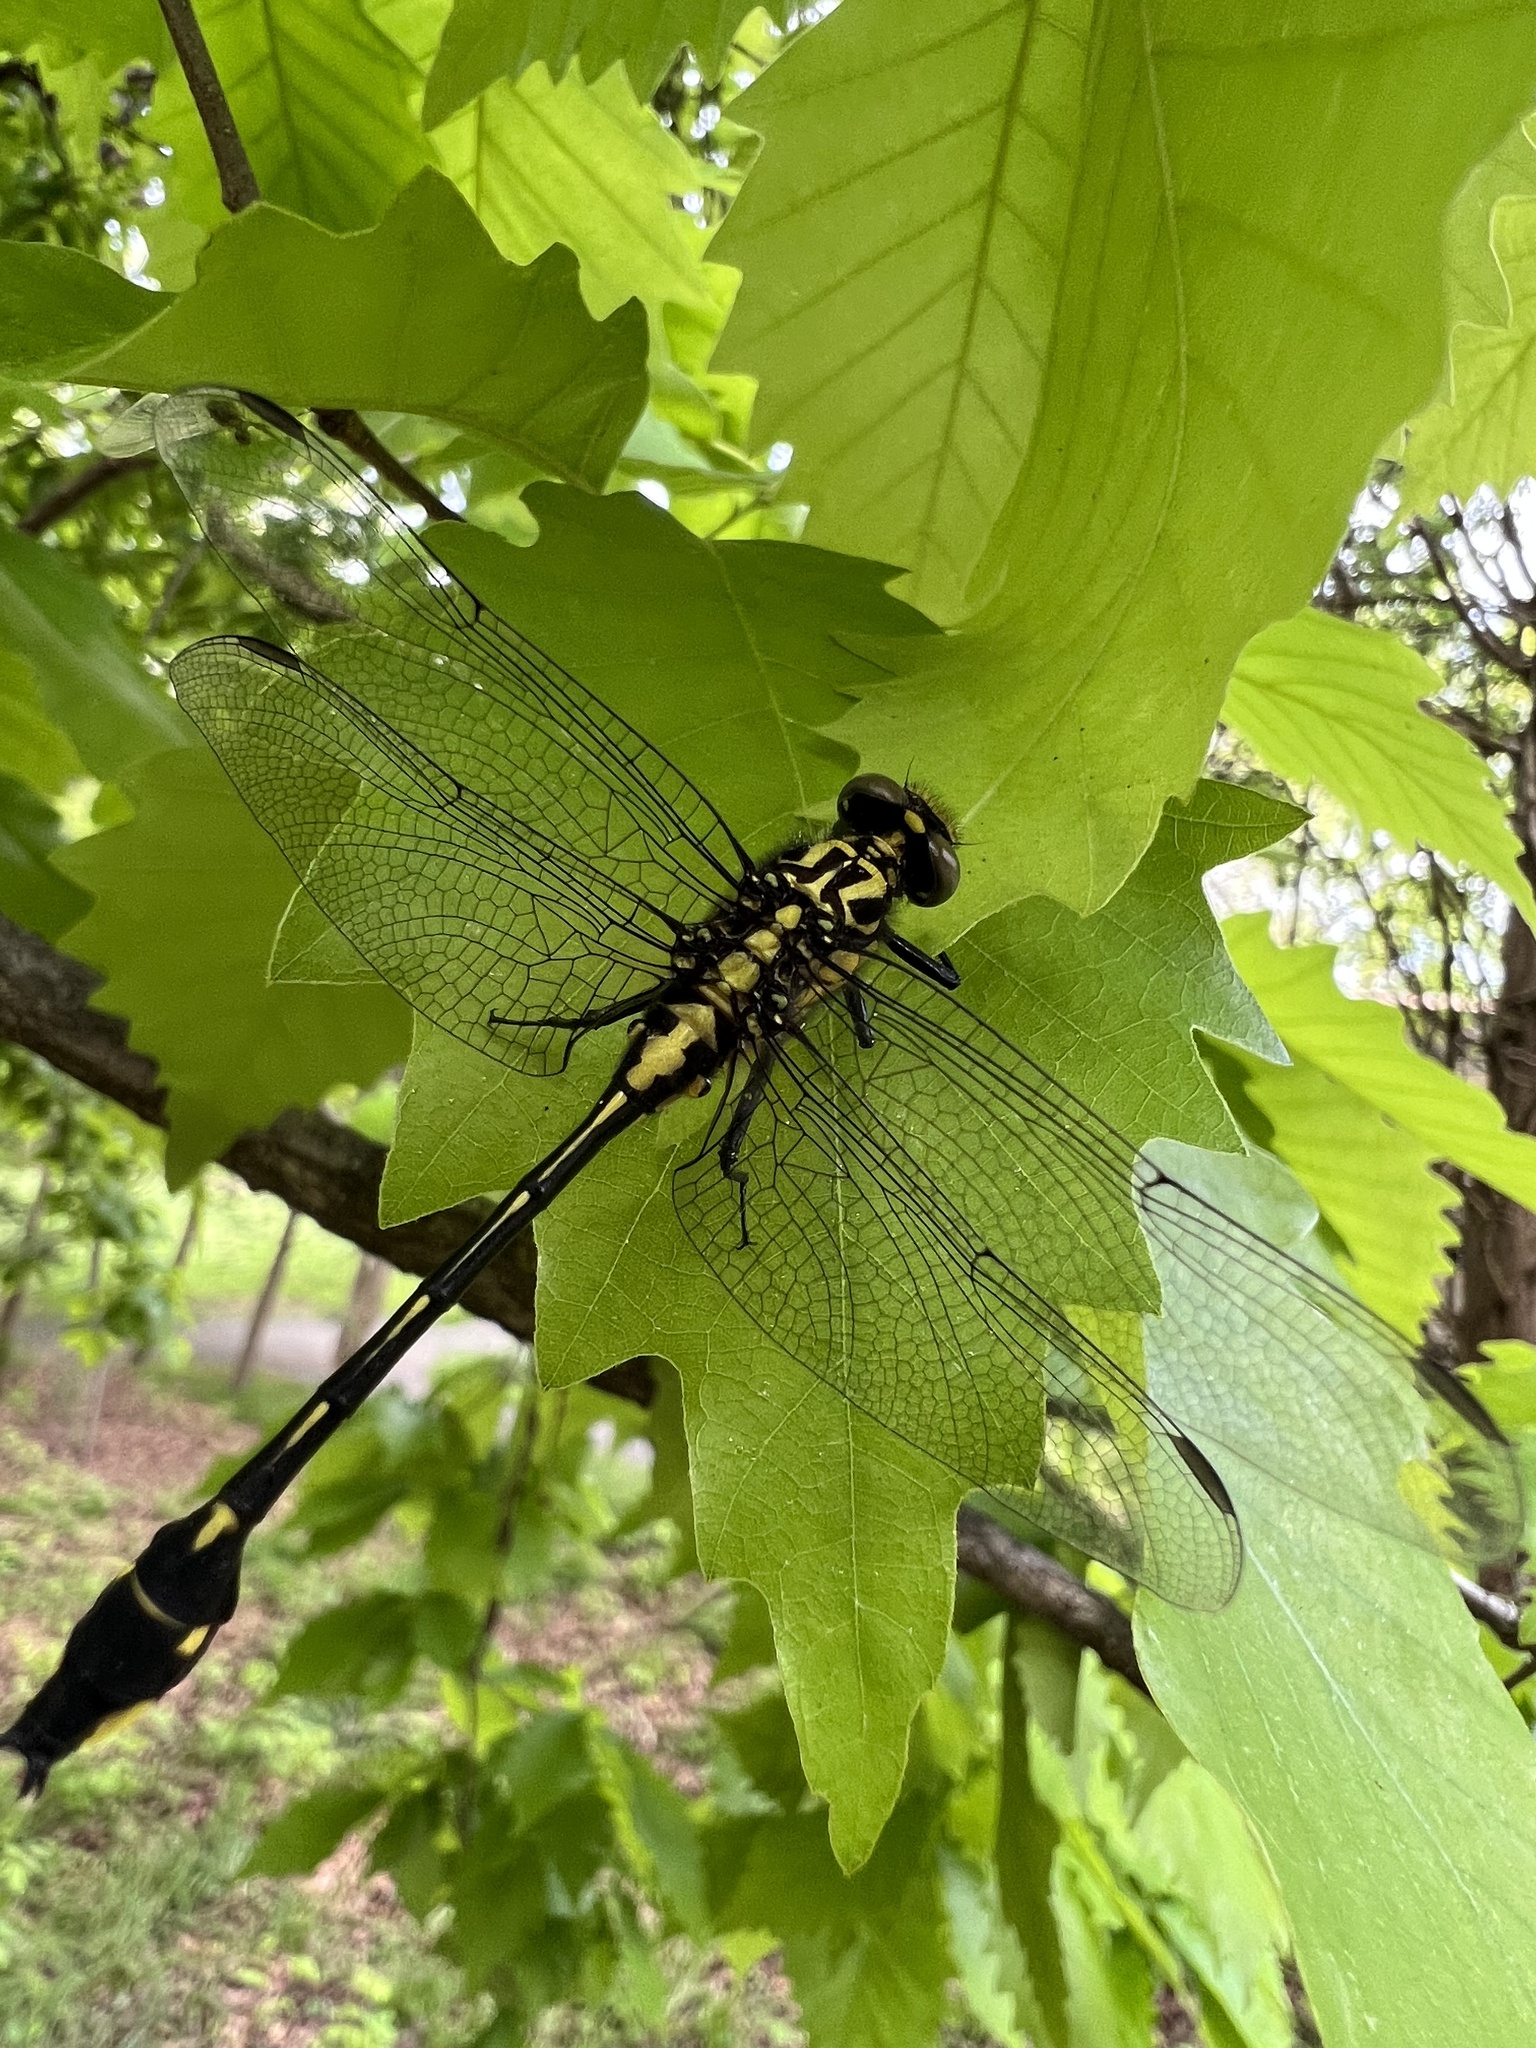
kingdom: Animalia
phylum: Arthropoda
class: Insecta
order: Odonata
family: Gomphidae
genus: Gomphurus
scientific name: Gomphurus vastus
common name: Cobra clubtail
